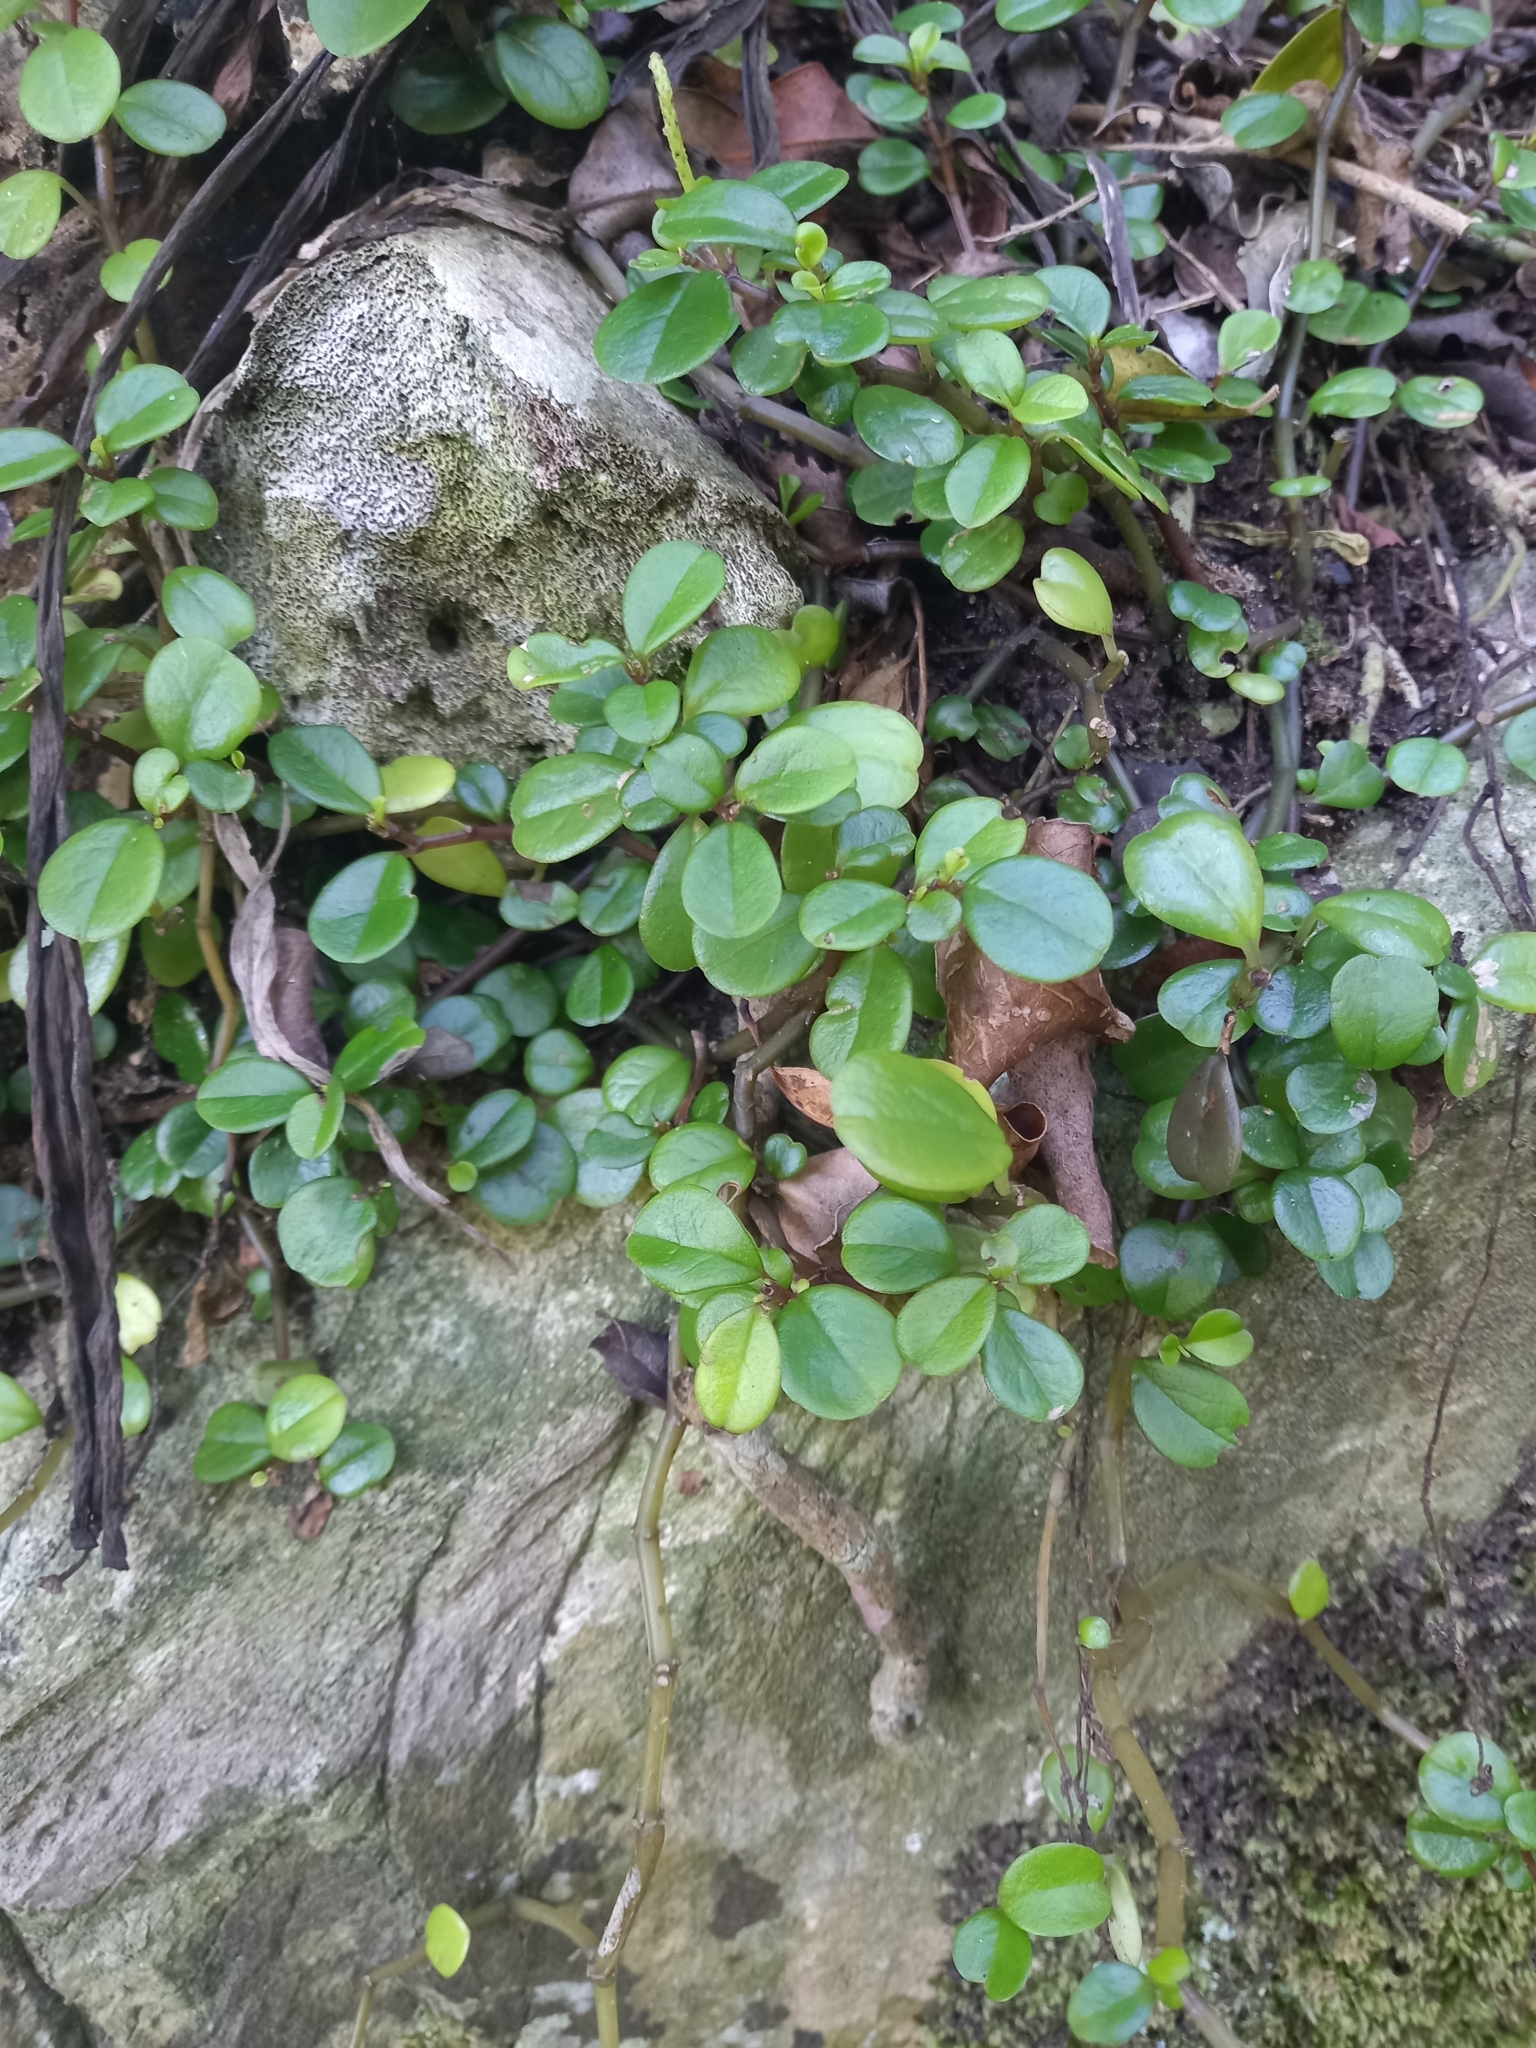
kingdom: Plantae
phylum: Tracheophyta
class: Magnoliopsida
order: Piperales
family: Piperaceae
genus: Peperomia
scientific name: Peperomia retusa
